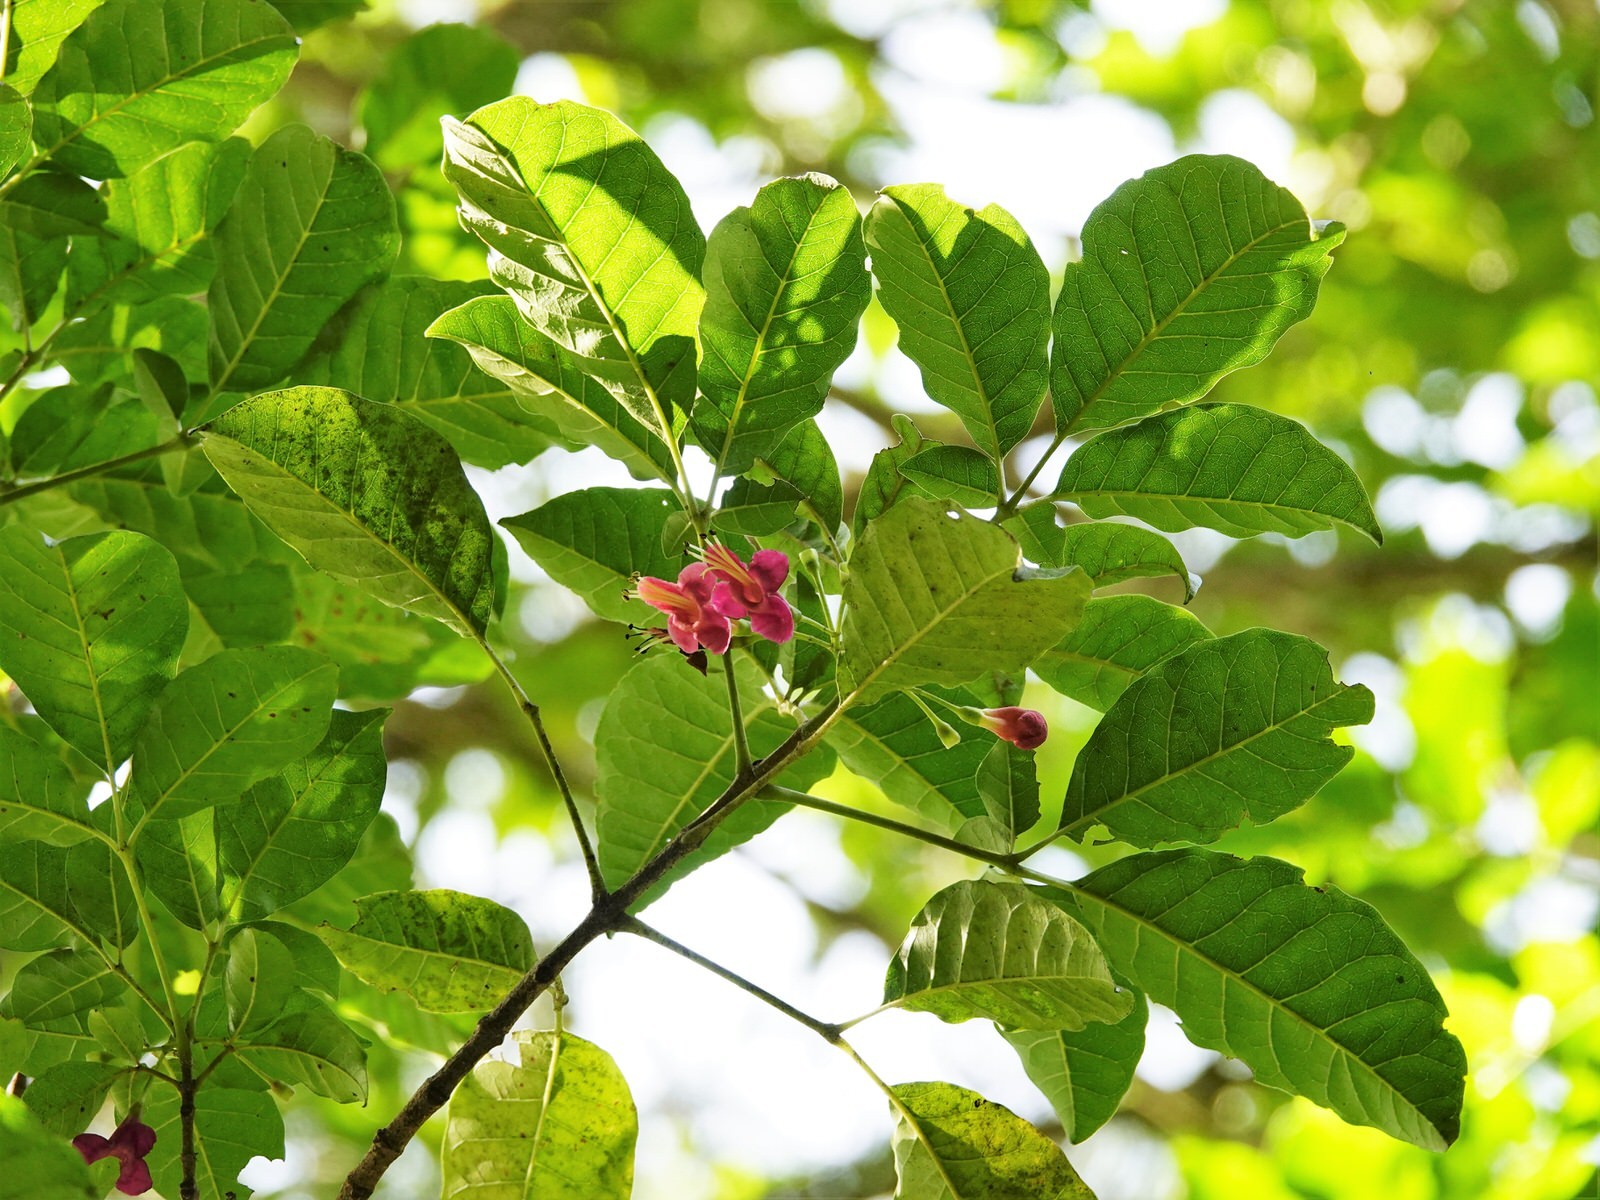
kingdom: Plantae
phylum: Tracheophyta
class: Magnoliopsida
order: Lamiales
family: Lamiaceae
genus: Vitex
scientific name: Vitex lucens
